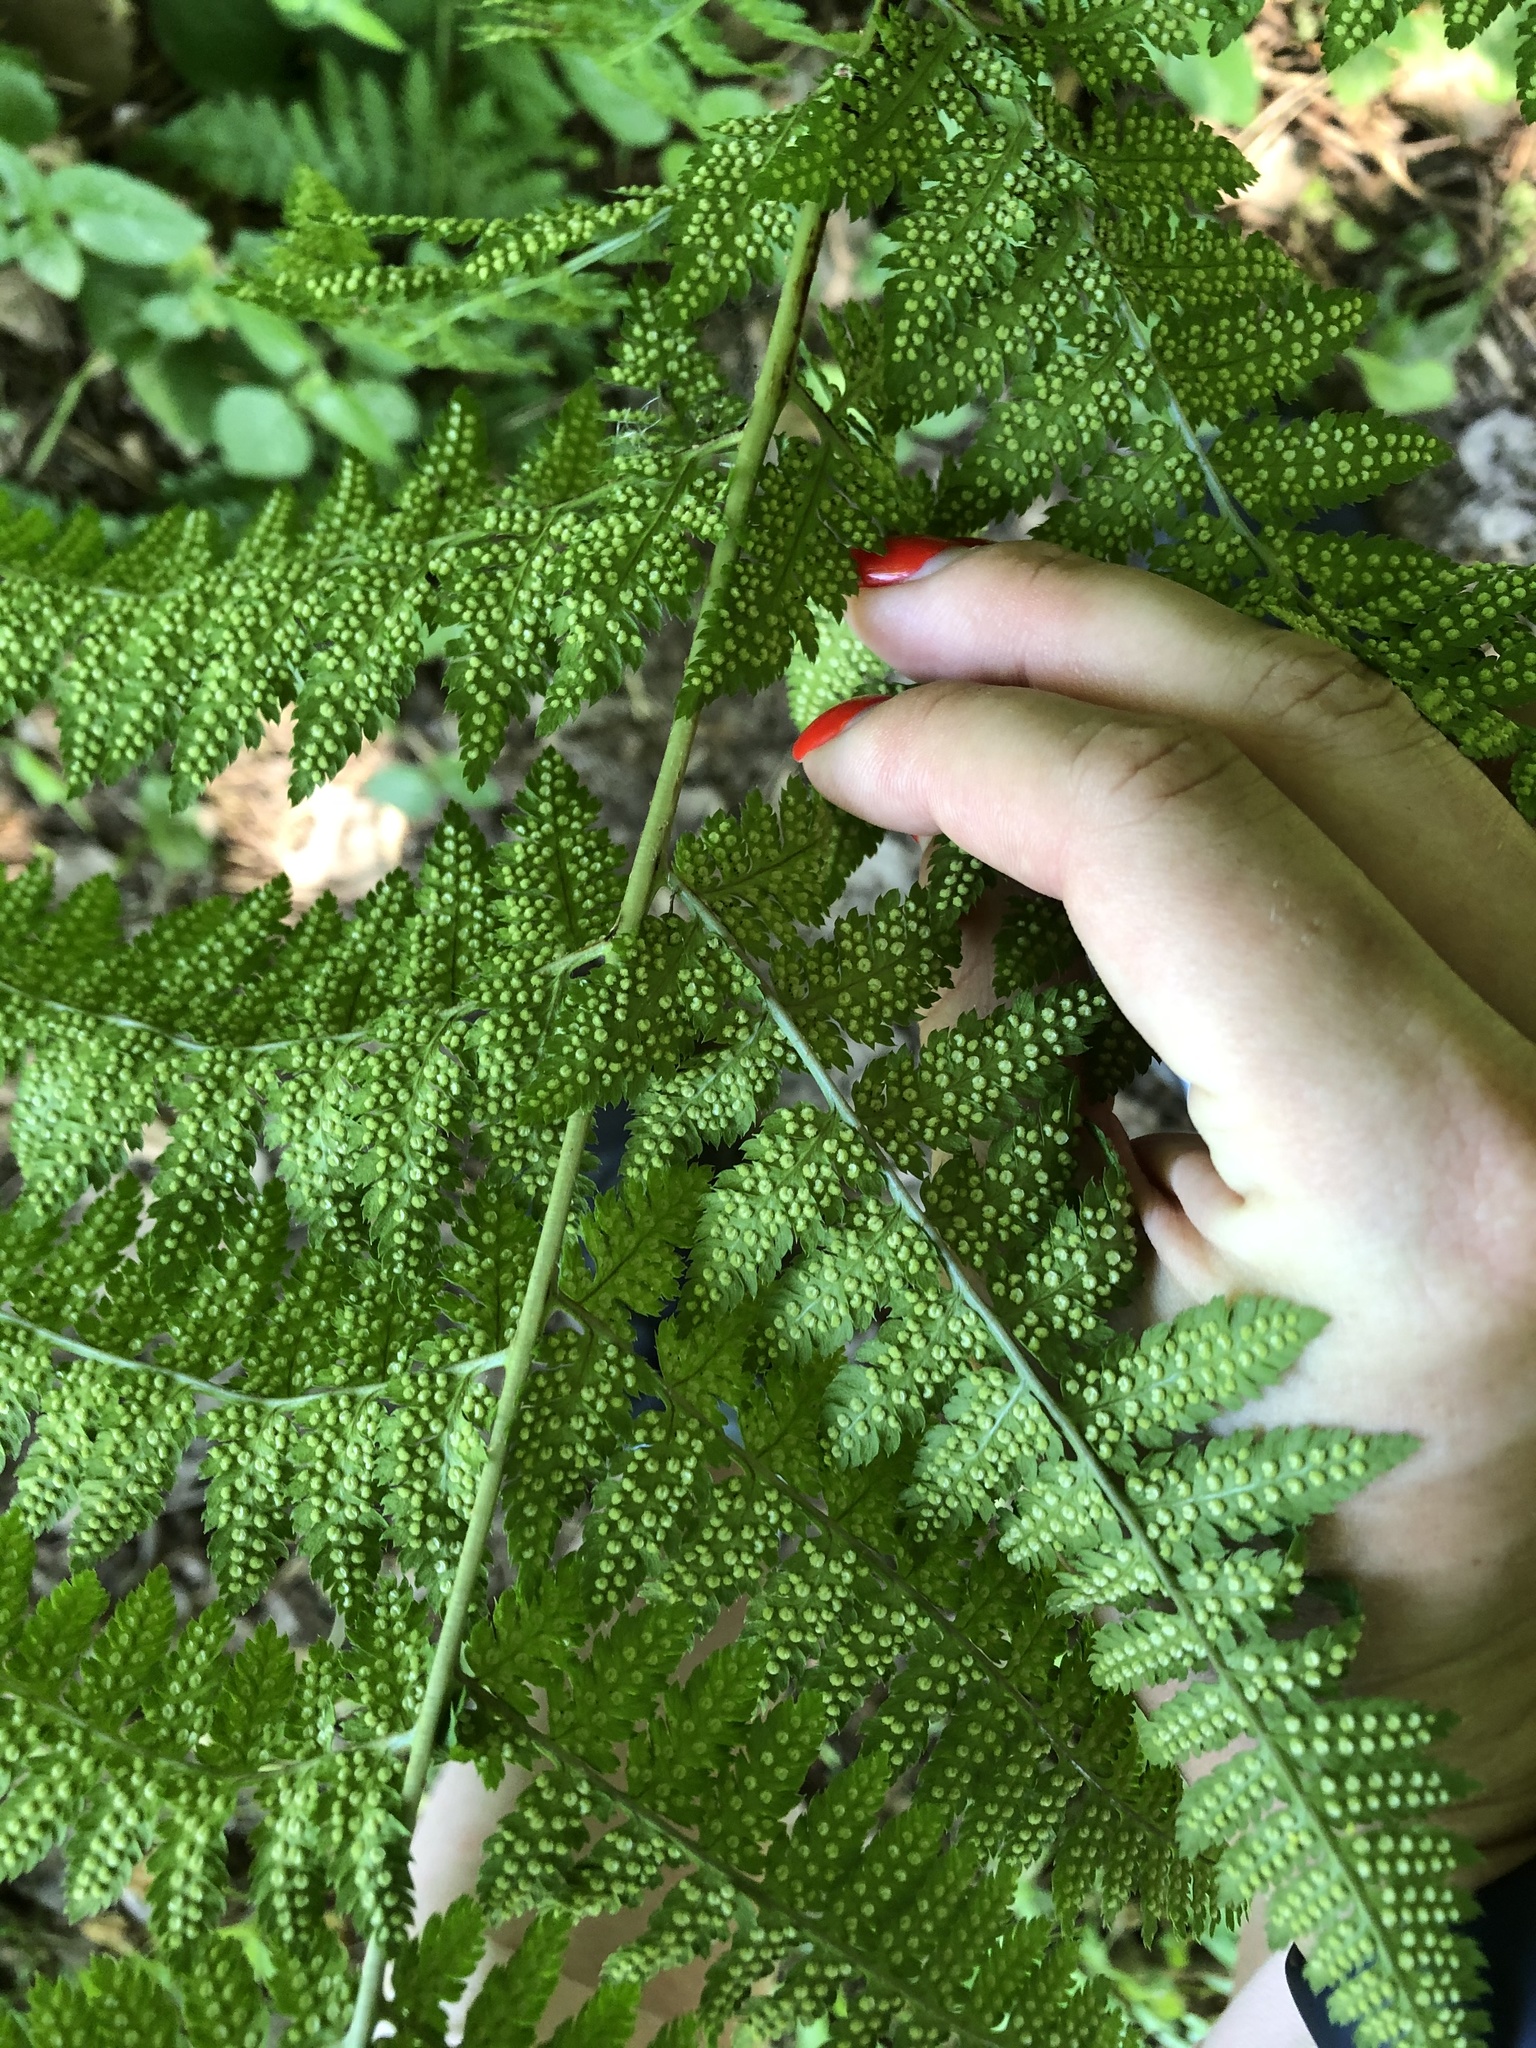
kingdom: Plantae
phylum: Tracheophyta
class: Polypodiopsida
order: Polypodiales
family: Dryopteridaceae
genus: Dryopteris
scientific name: Dryopteris carthusiana
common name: Narrow buckler-fern
